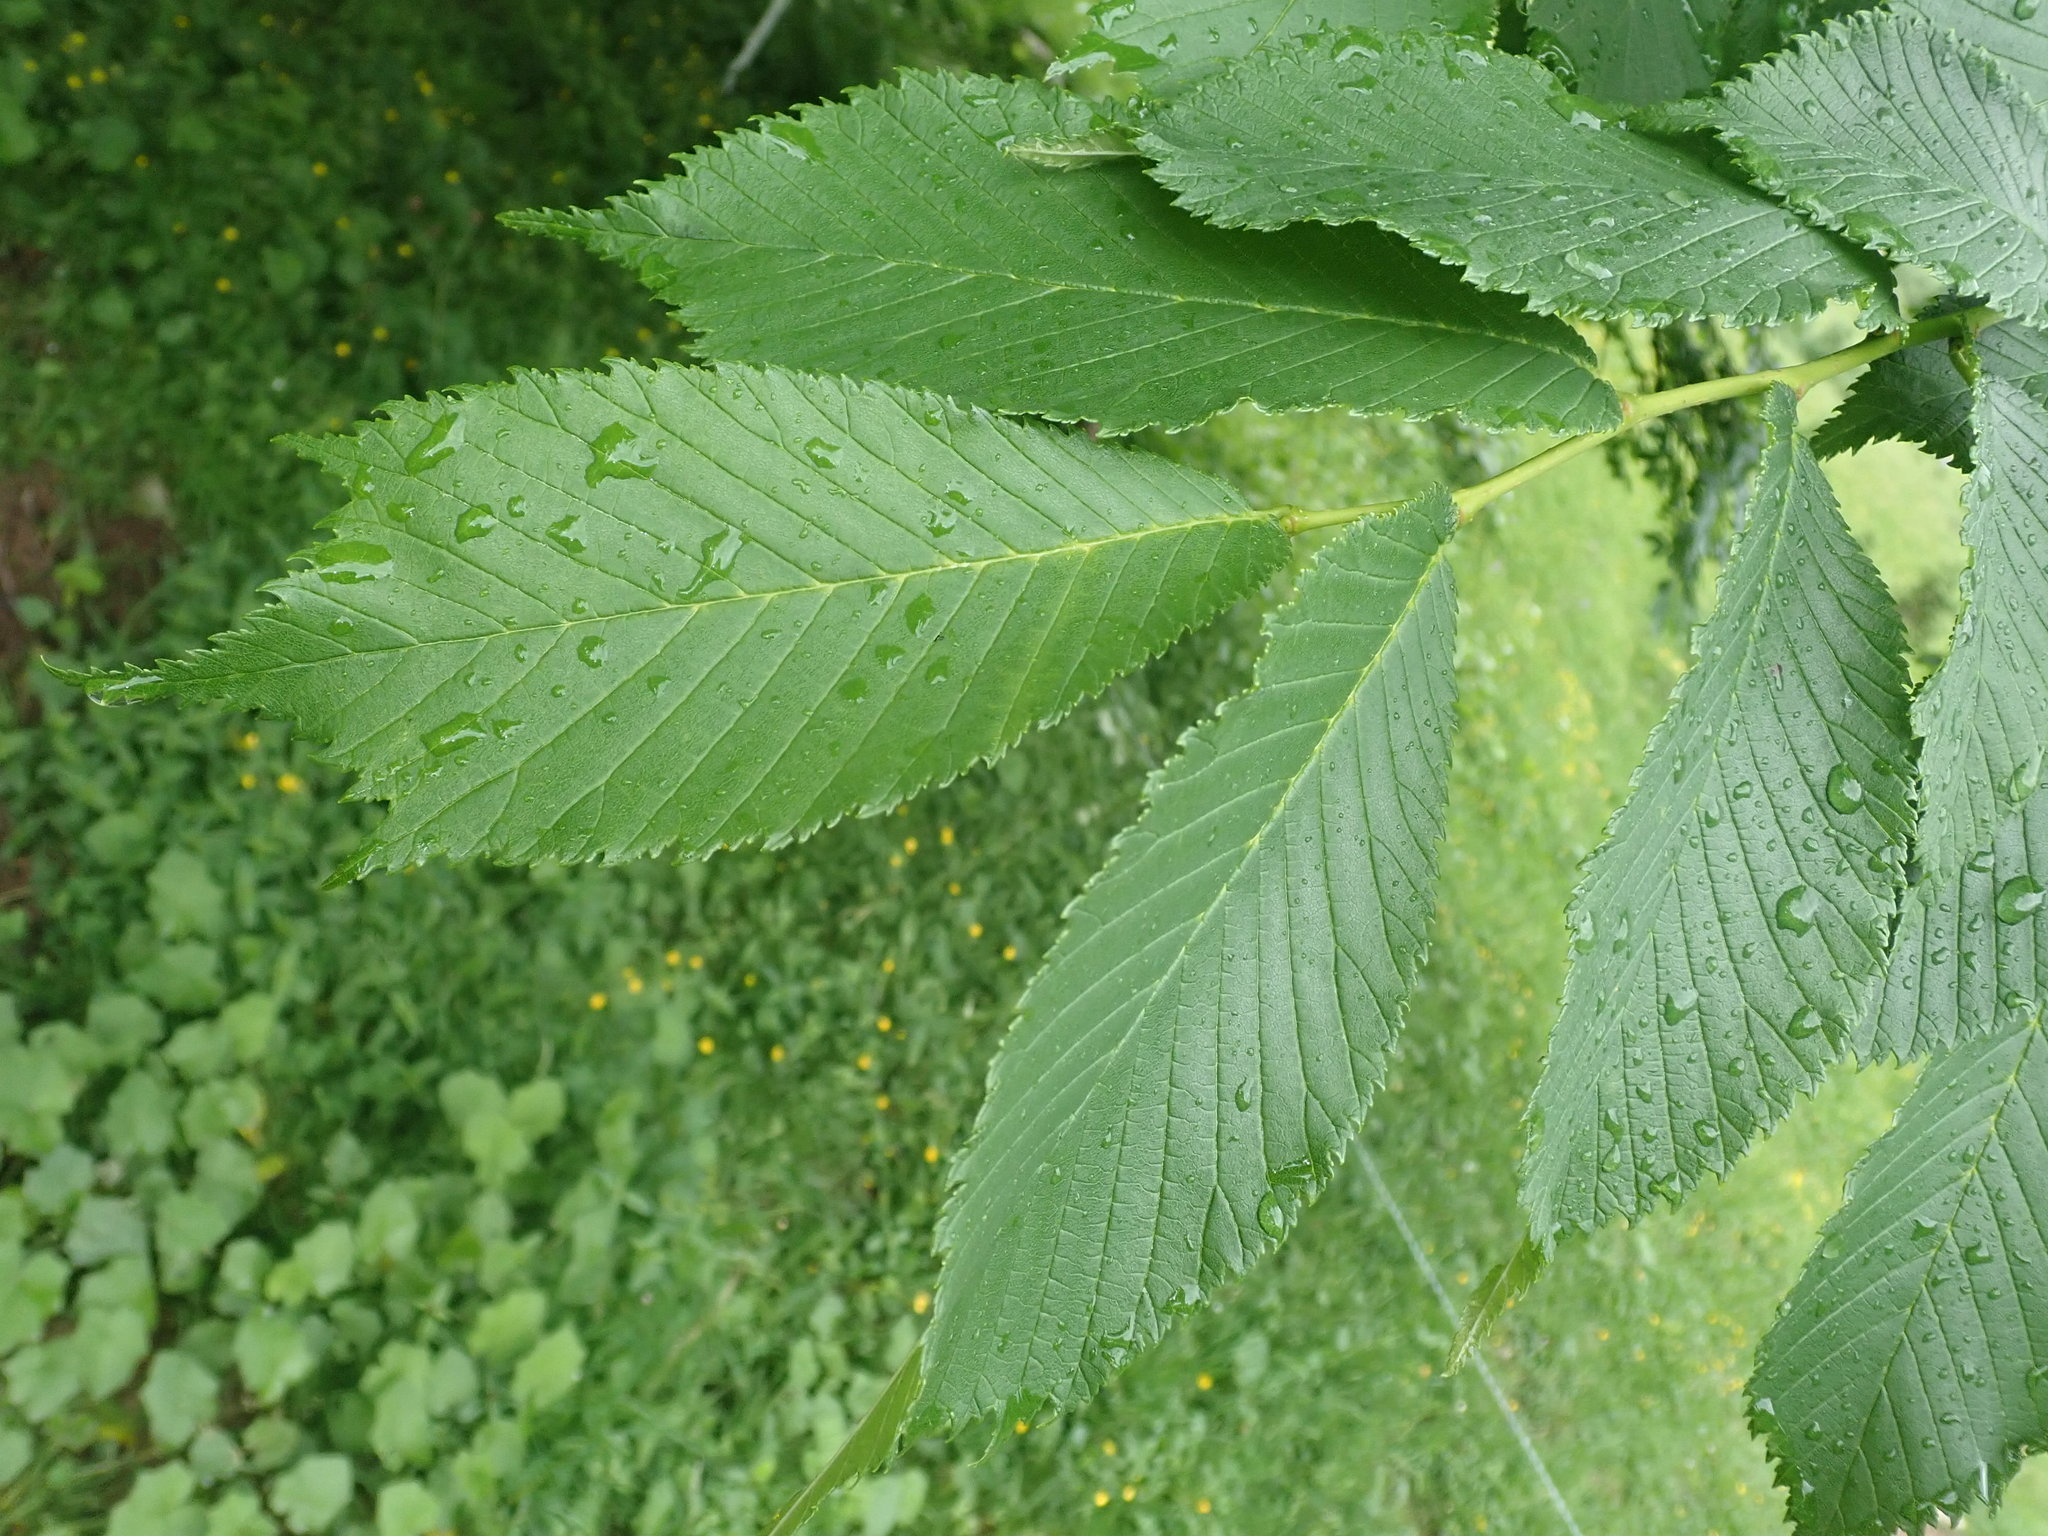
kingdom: Plantae
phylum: Tracheophyta
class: Magnoliopsida
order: Rosales
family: Ulmaceae
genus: Ulmus
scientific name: Ulmus glabra
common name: Wych elm
